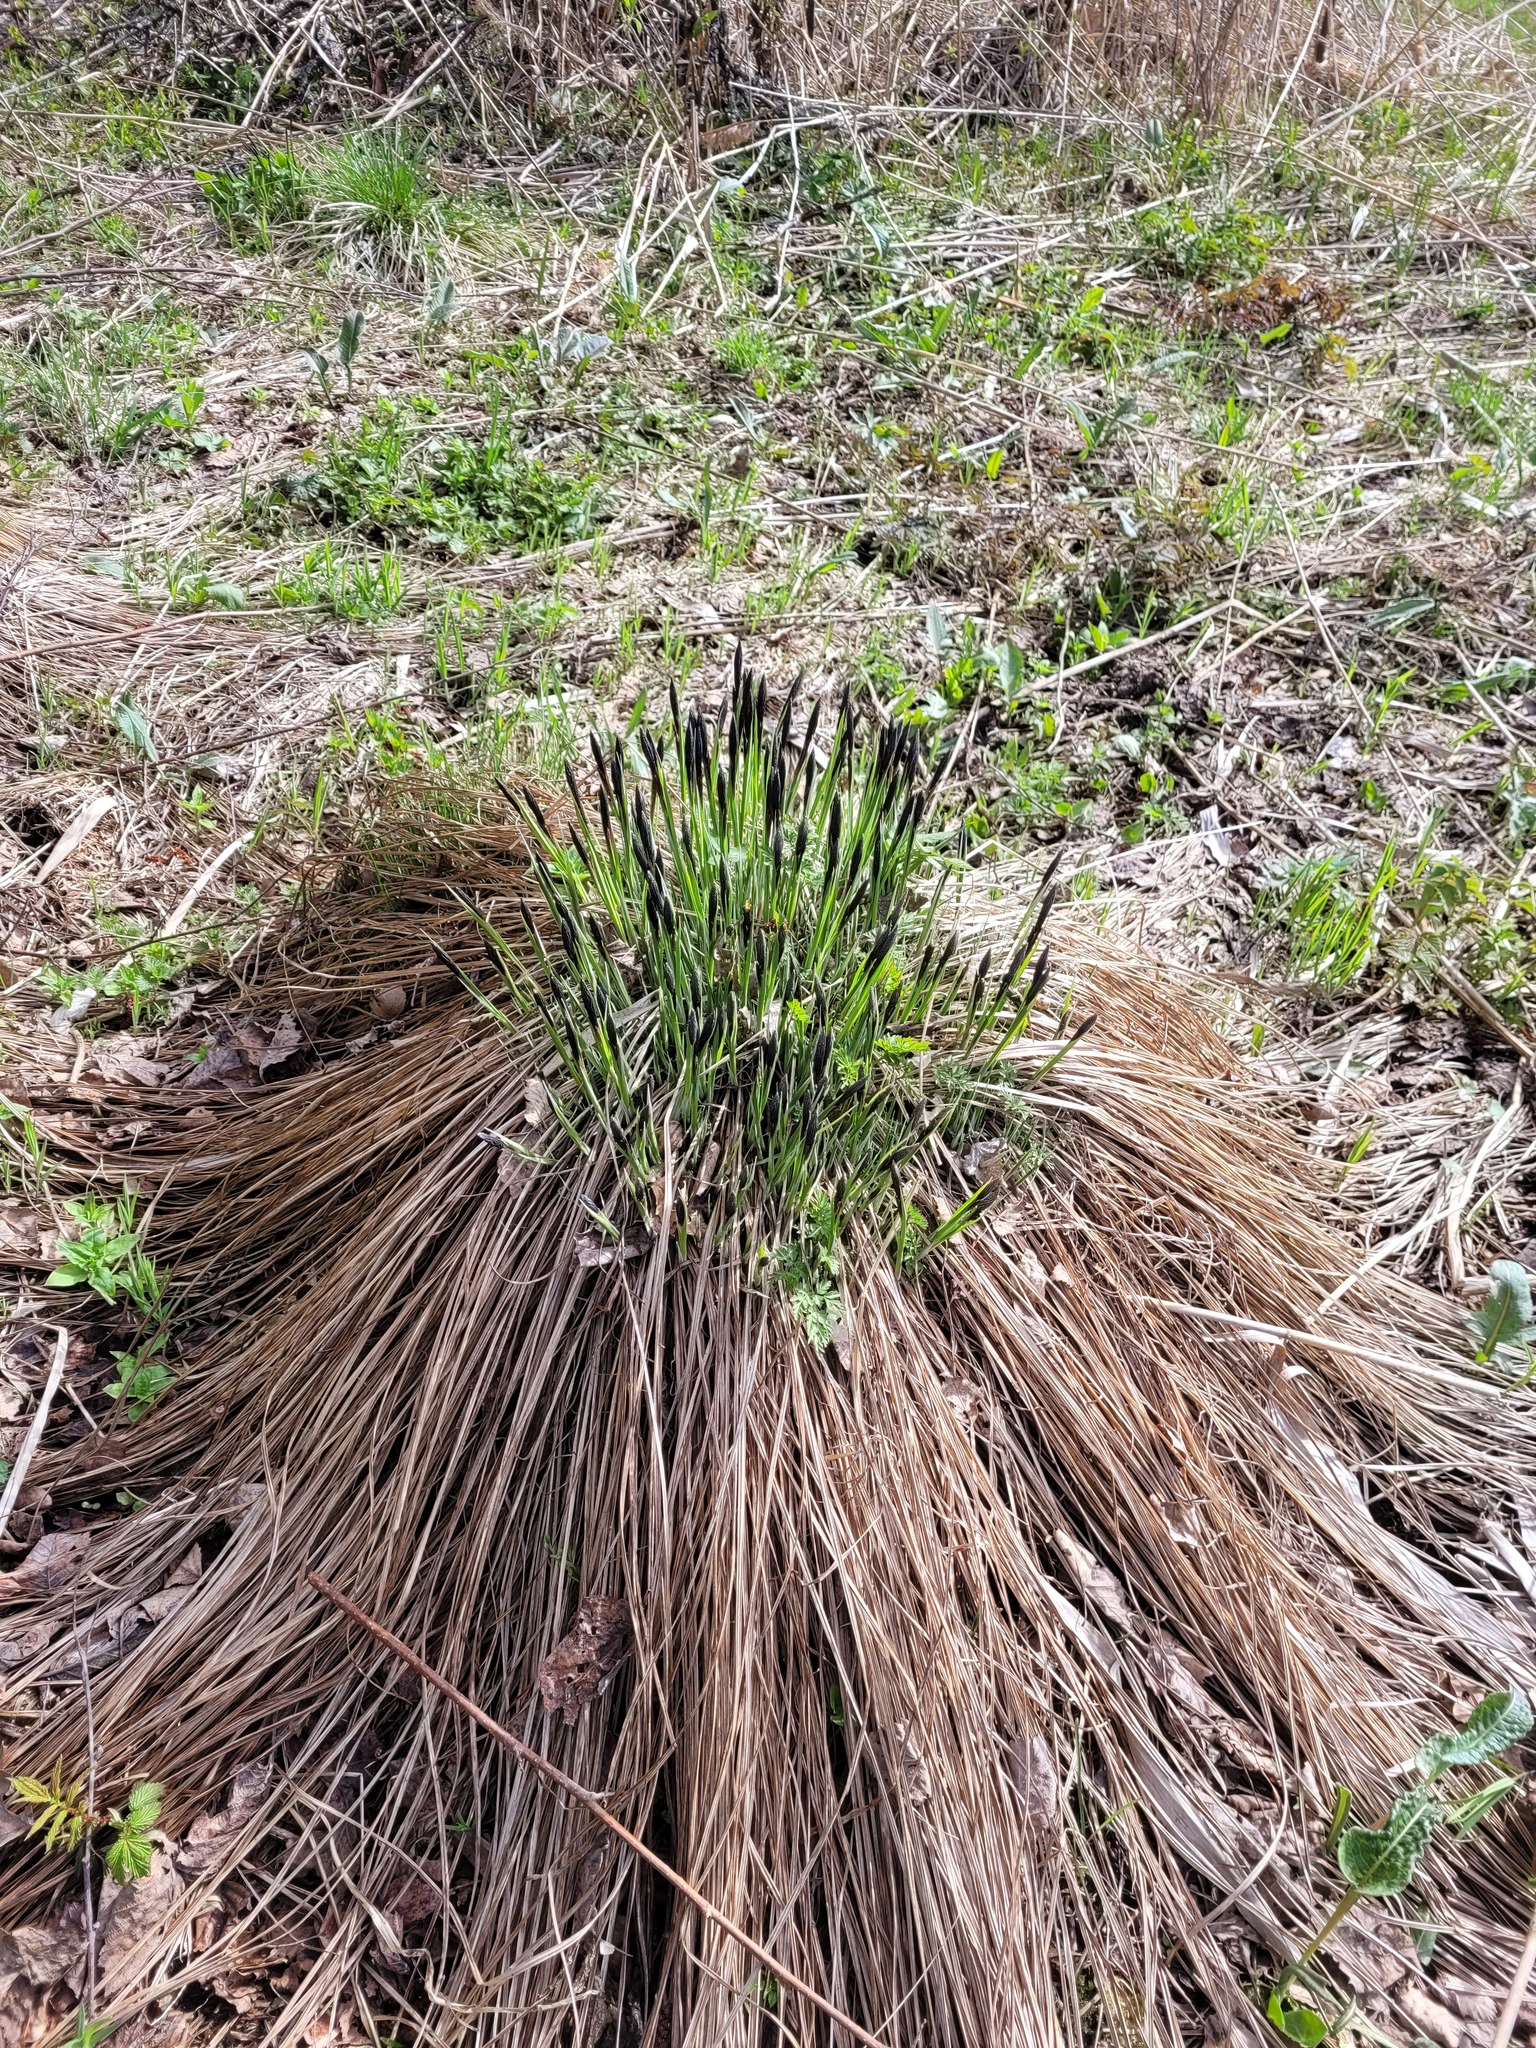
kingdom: Plantae
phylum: Tracheophyta
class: Liliopsida
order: Poales
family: Cyperaceae
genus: Carex
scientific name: Carex cespitosa
